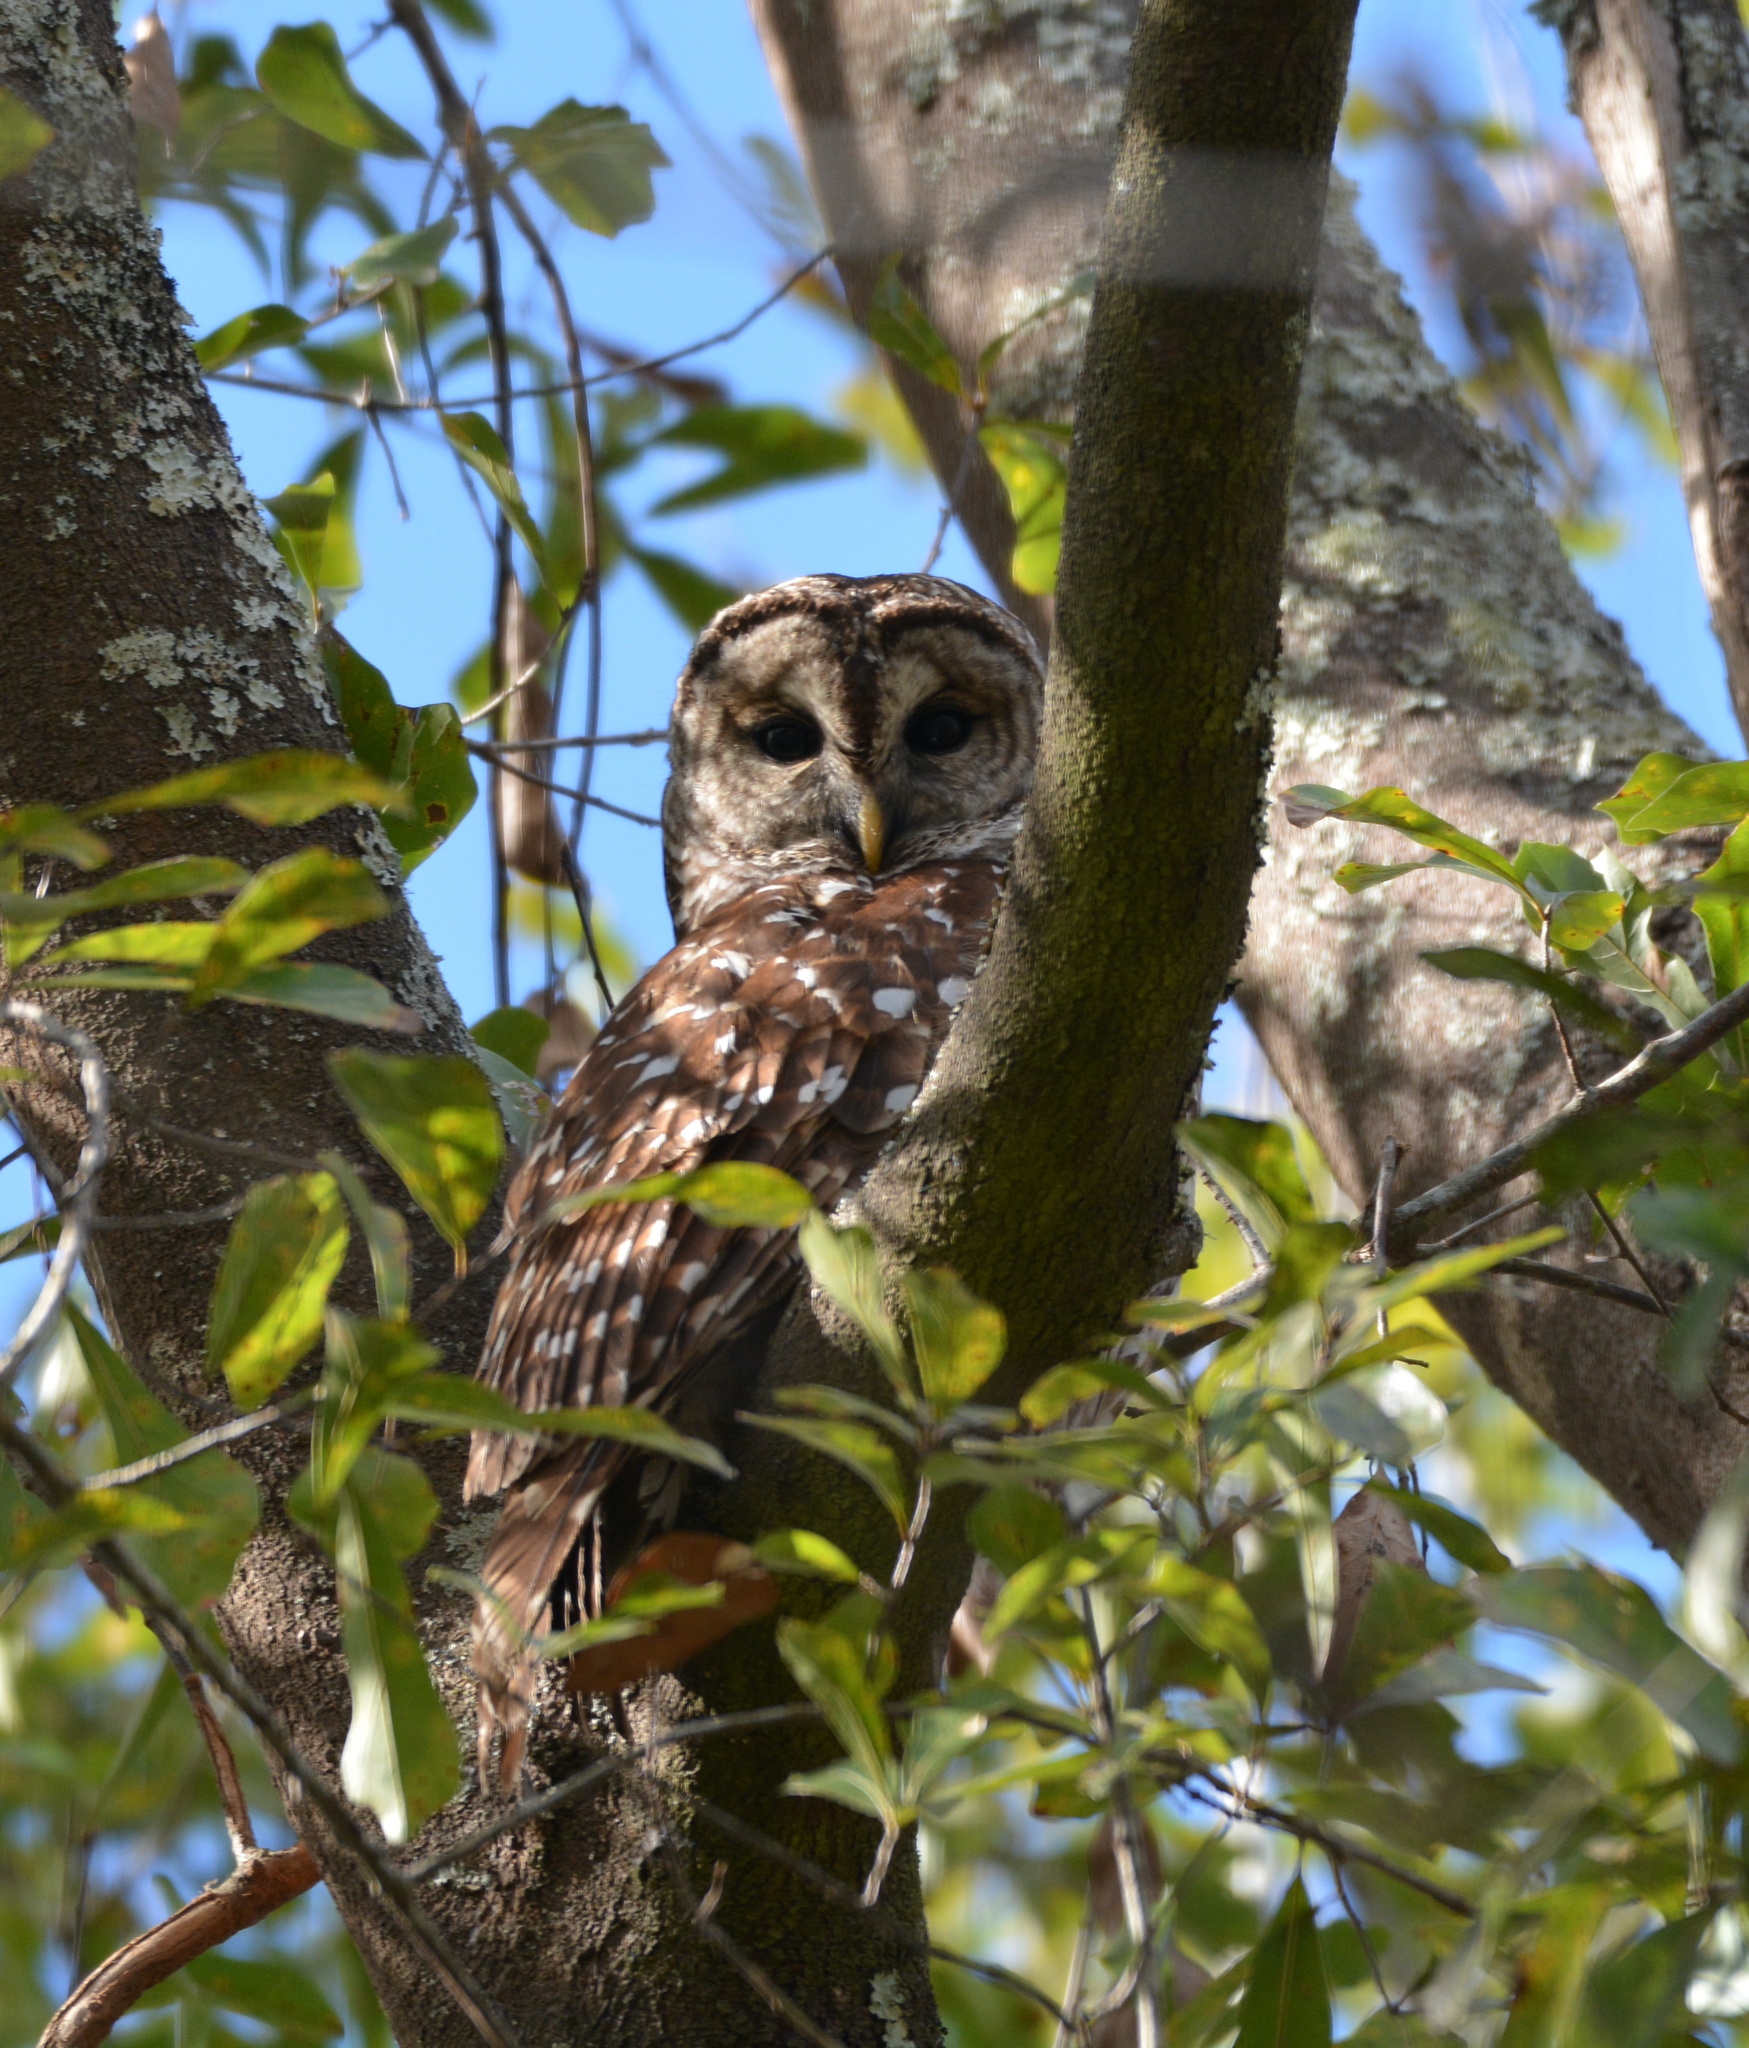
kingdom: Animalia
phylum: Chordata
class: Aves
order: Strigiformes
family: Strigidae
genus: Strix
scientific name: Strix varia
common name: Barred owl
